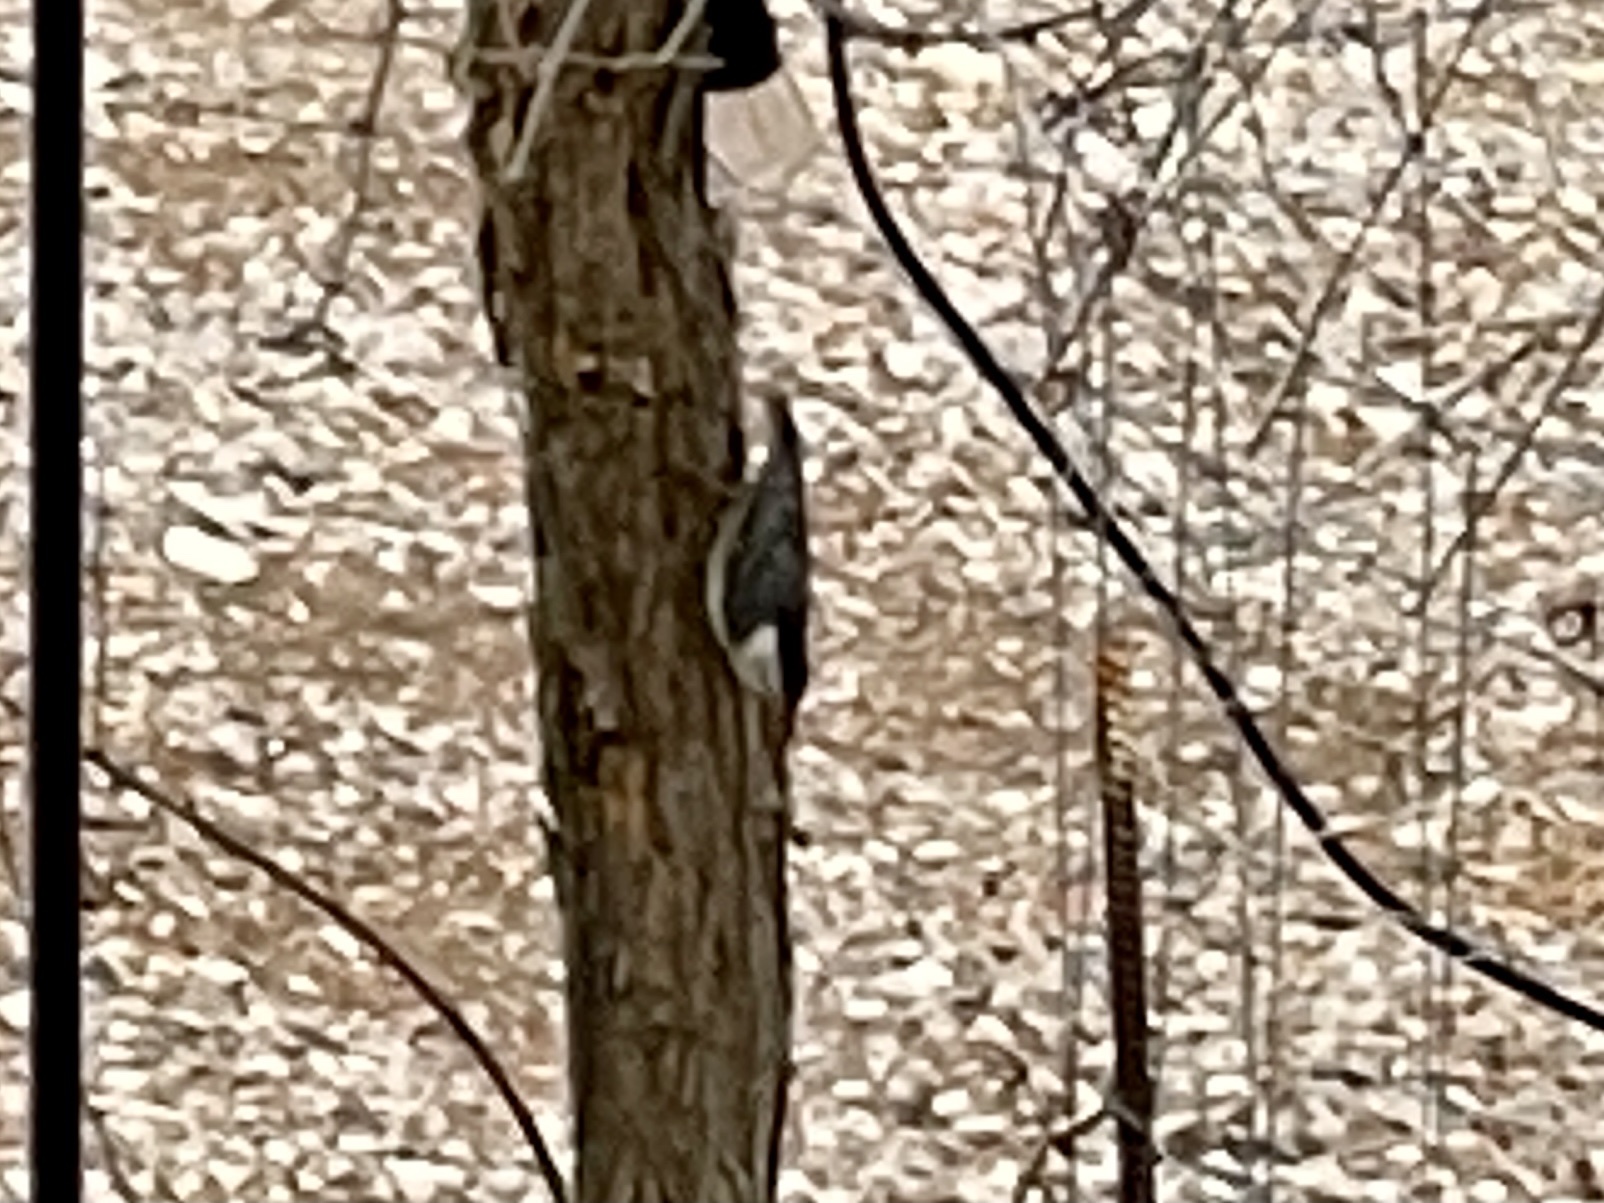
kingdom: Animalia
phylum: Chordata
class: Aves
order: Passeriformes
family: Sittidae
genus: Sitta
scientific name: Sitta carolinensis
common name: White-breasted nuthatch
